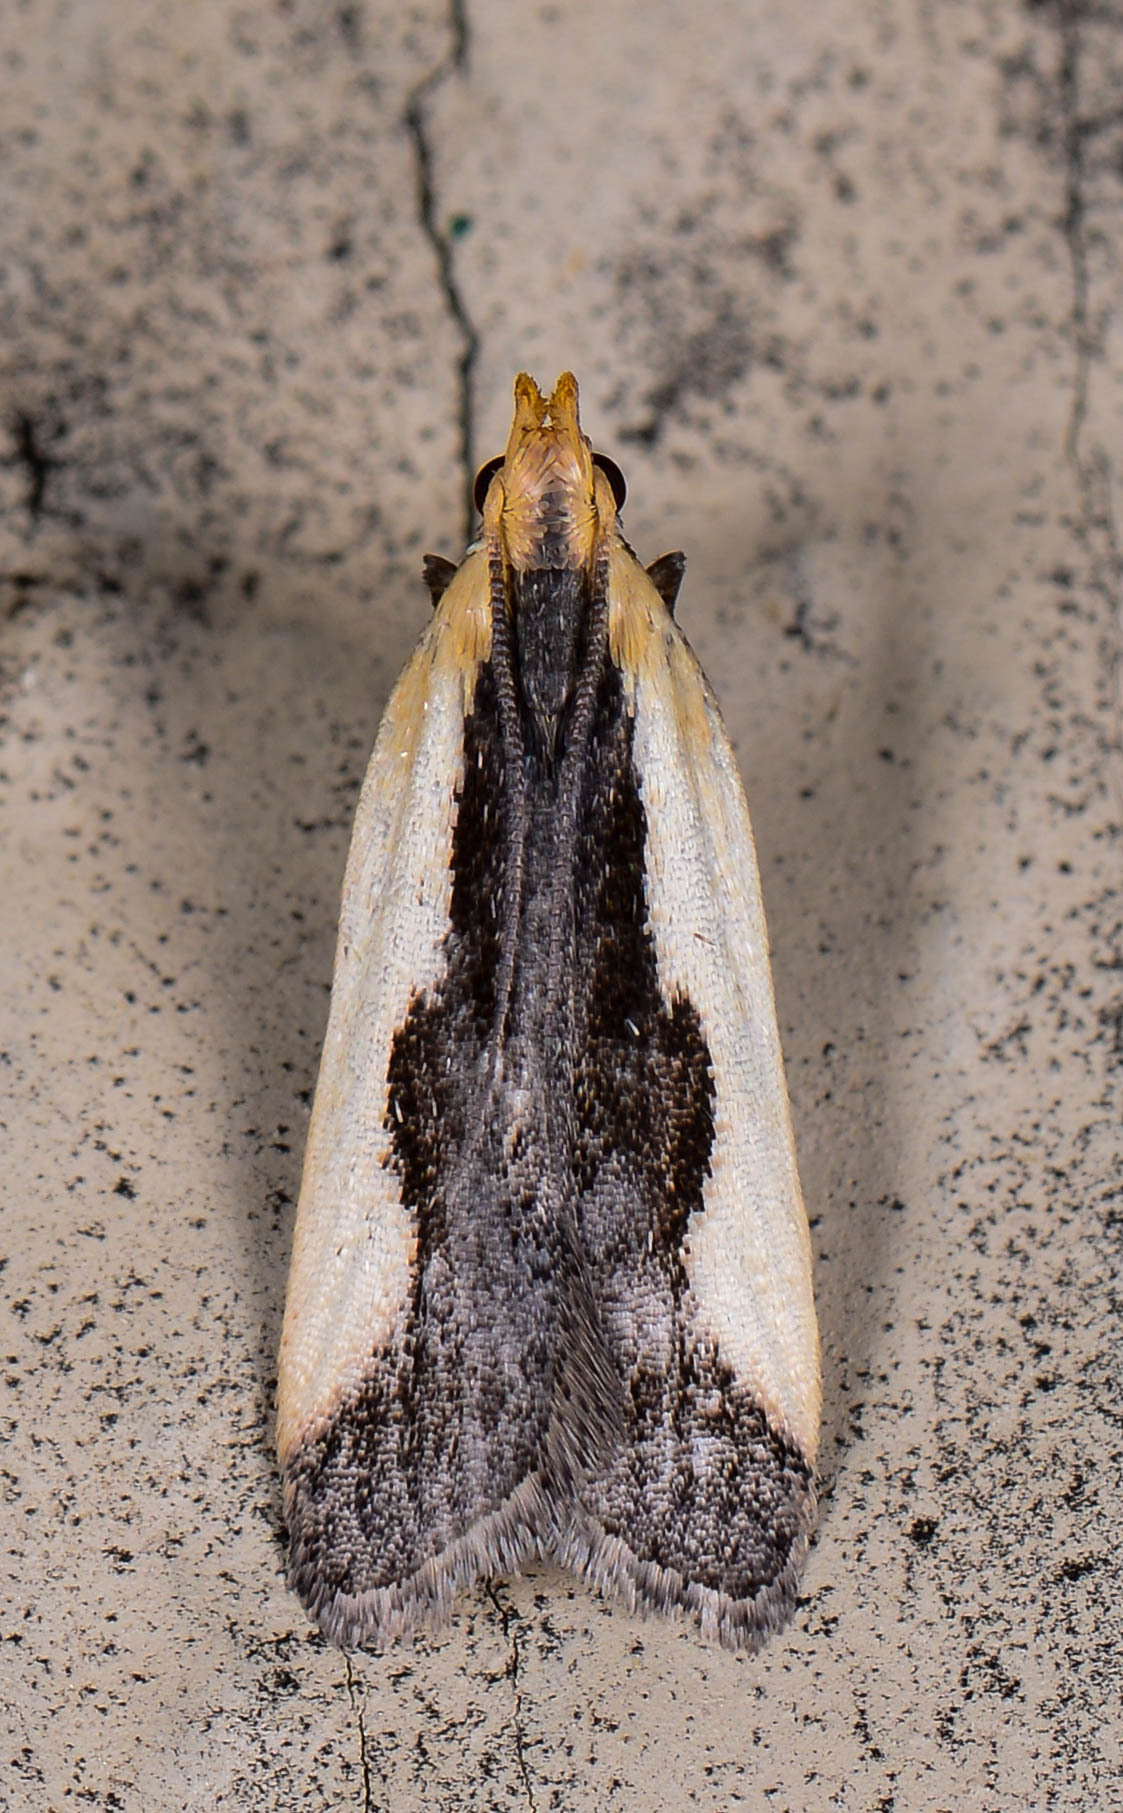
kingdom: Animalia
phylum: Arthropoda
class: Insecta
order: Lepidoptera
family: Gelechiidae
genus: Dichomeris
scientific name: Dichomeris inserrata
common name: Indented dichomeris moth
